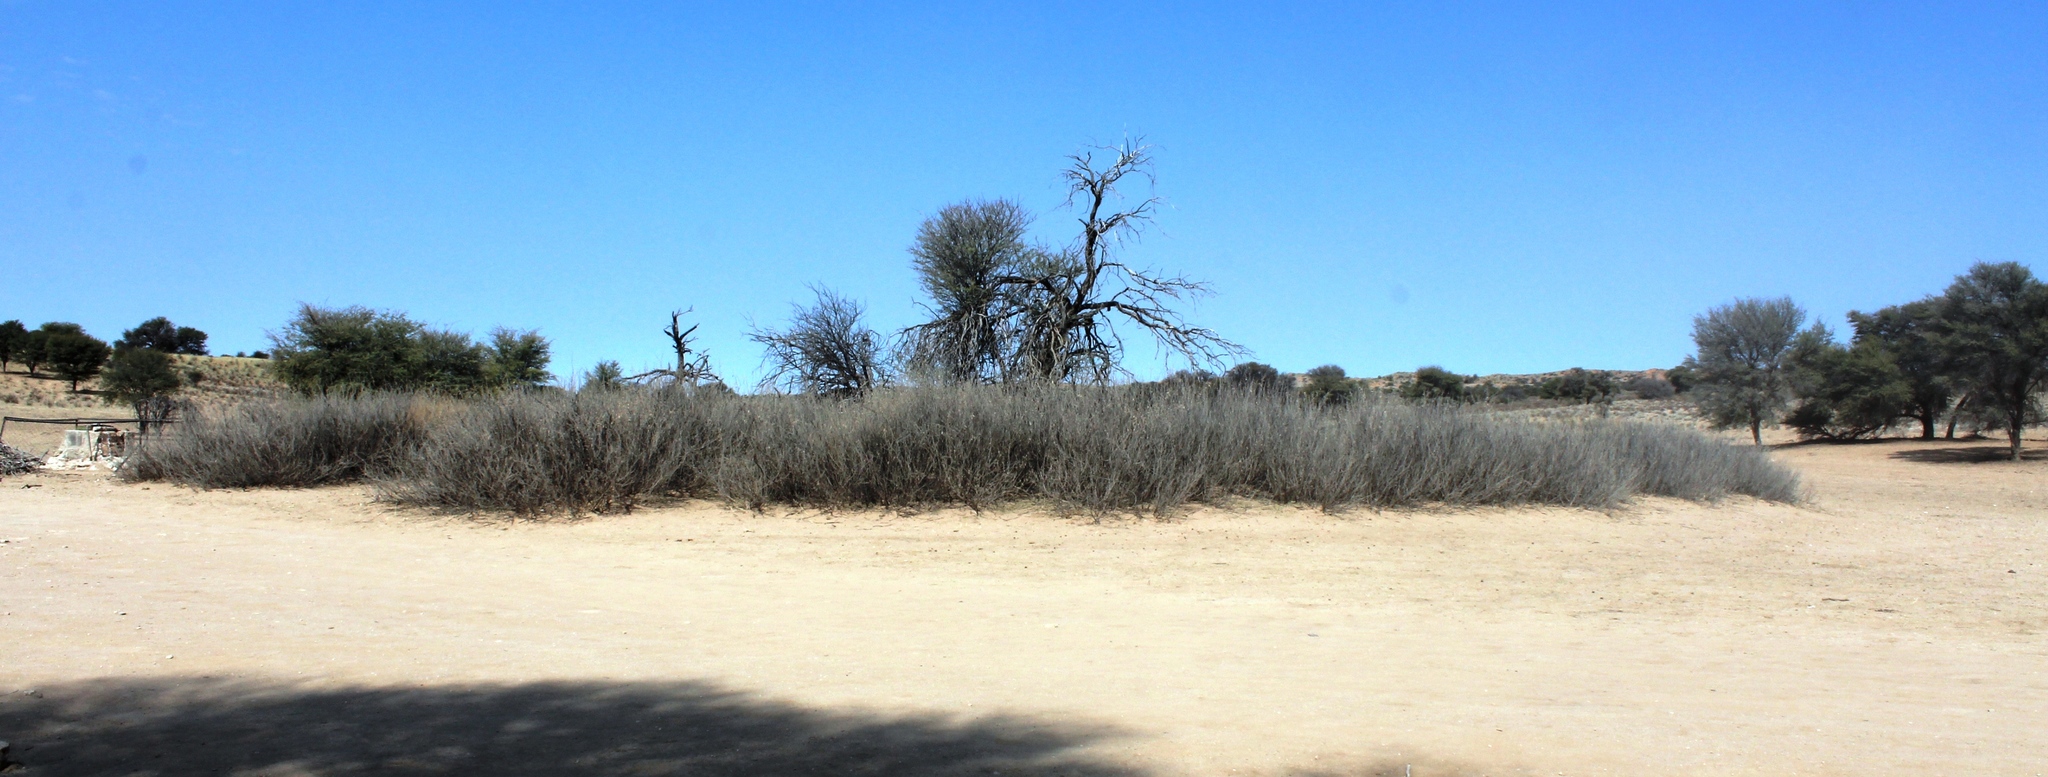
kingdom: Plantae
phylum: Tracheophyta
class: Magnoliopsida
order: Fabales
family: Fabaceae
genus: Vachellia
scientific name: Vachellia hebeclada
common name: Candle thorn
